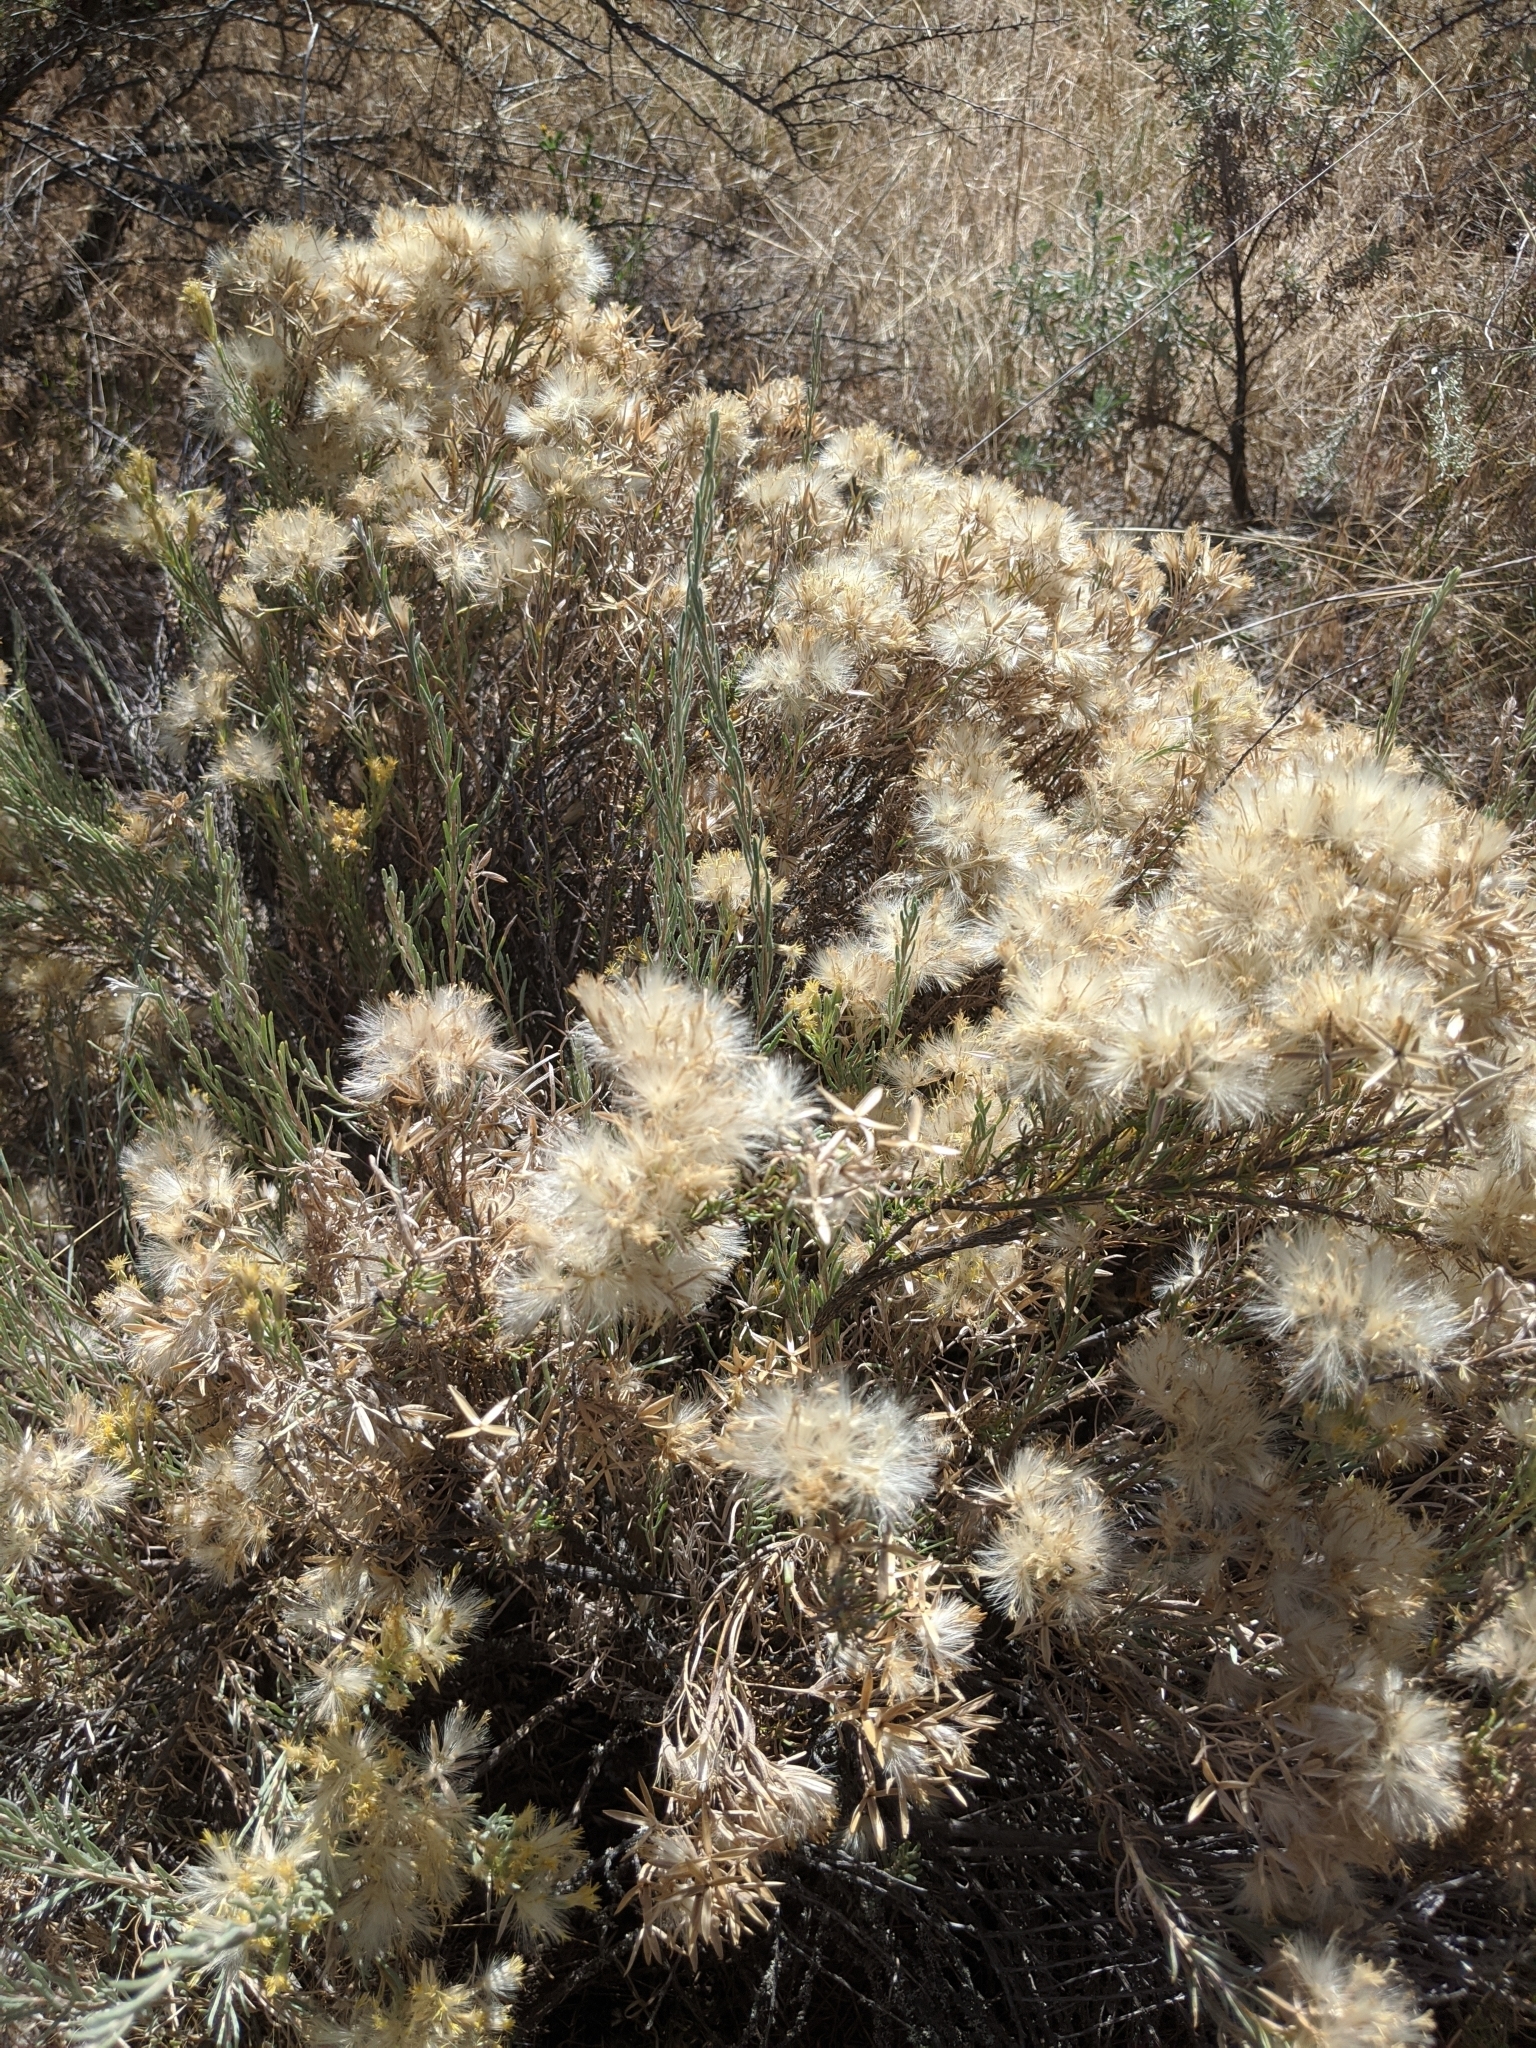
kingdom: Plantae
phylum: Tracheophyta
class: Magnoliopsida
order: Asterales
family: Asteraceae
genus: Tetradymia
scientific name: Tetradymia canescens
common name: Spineless horsebrush
